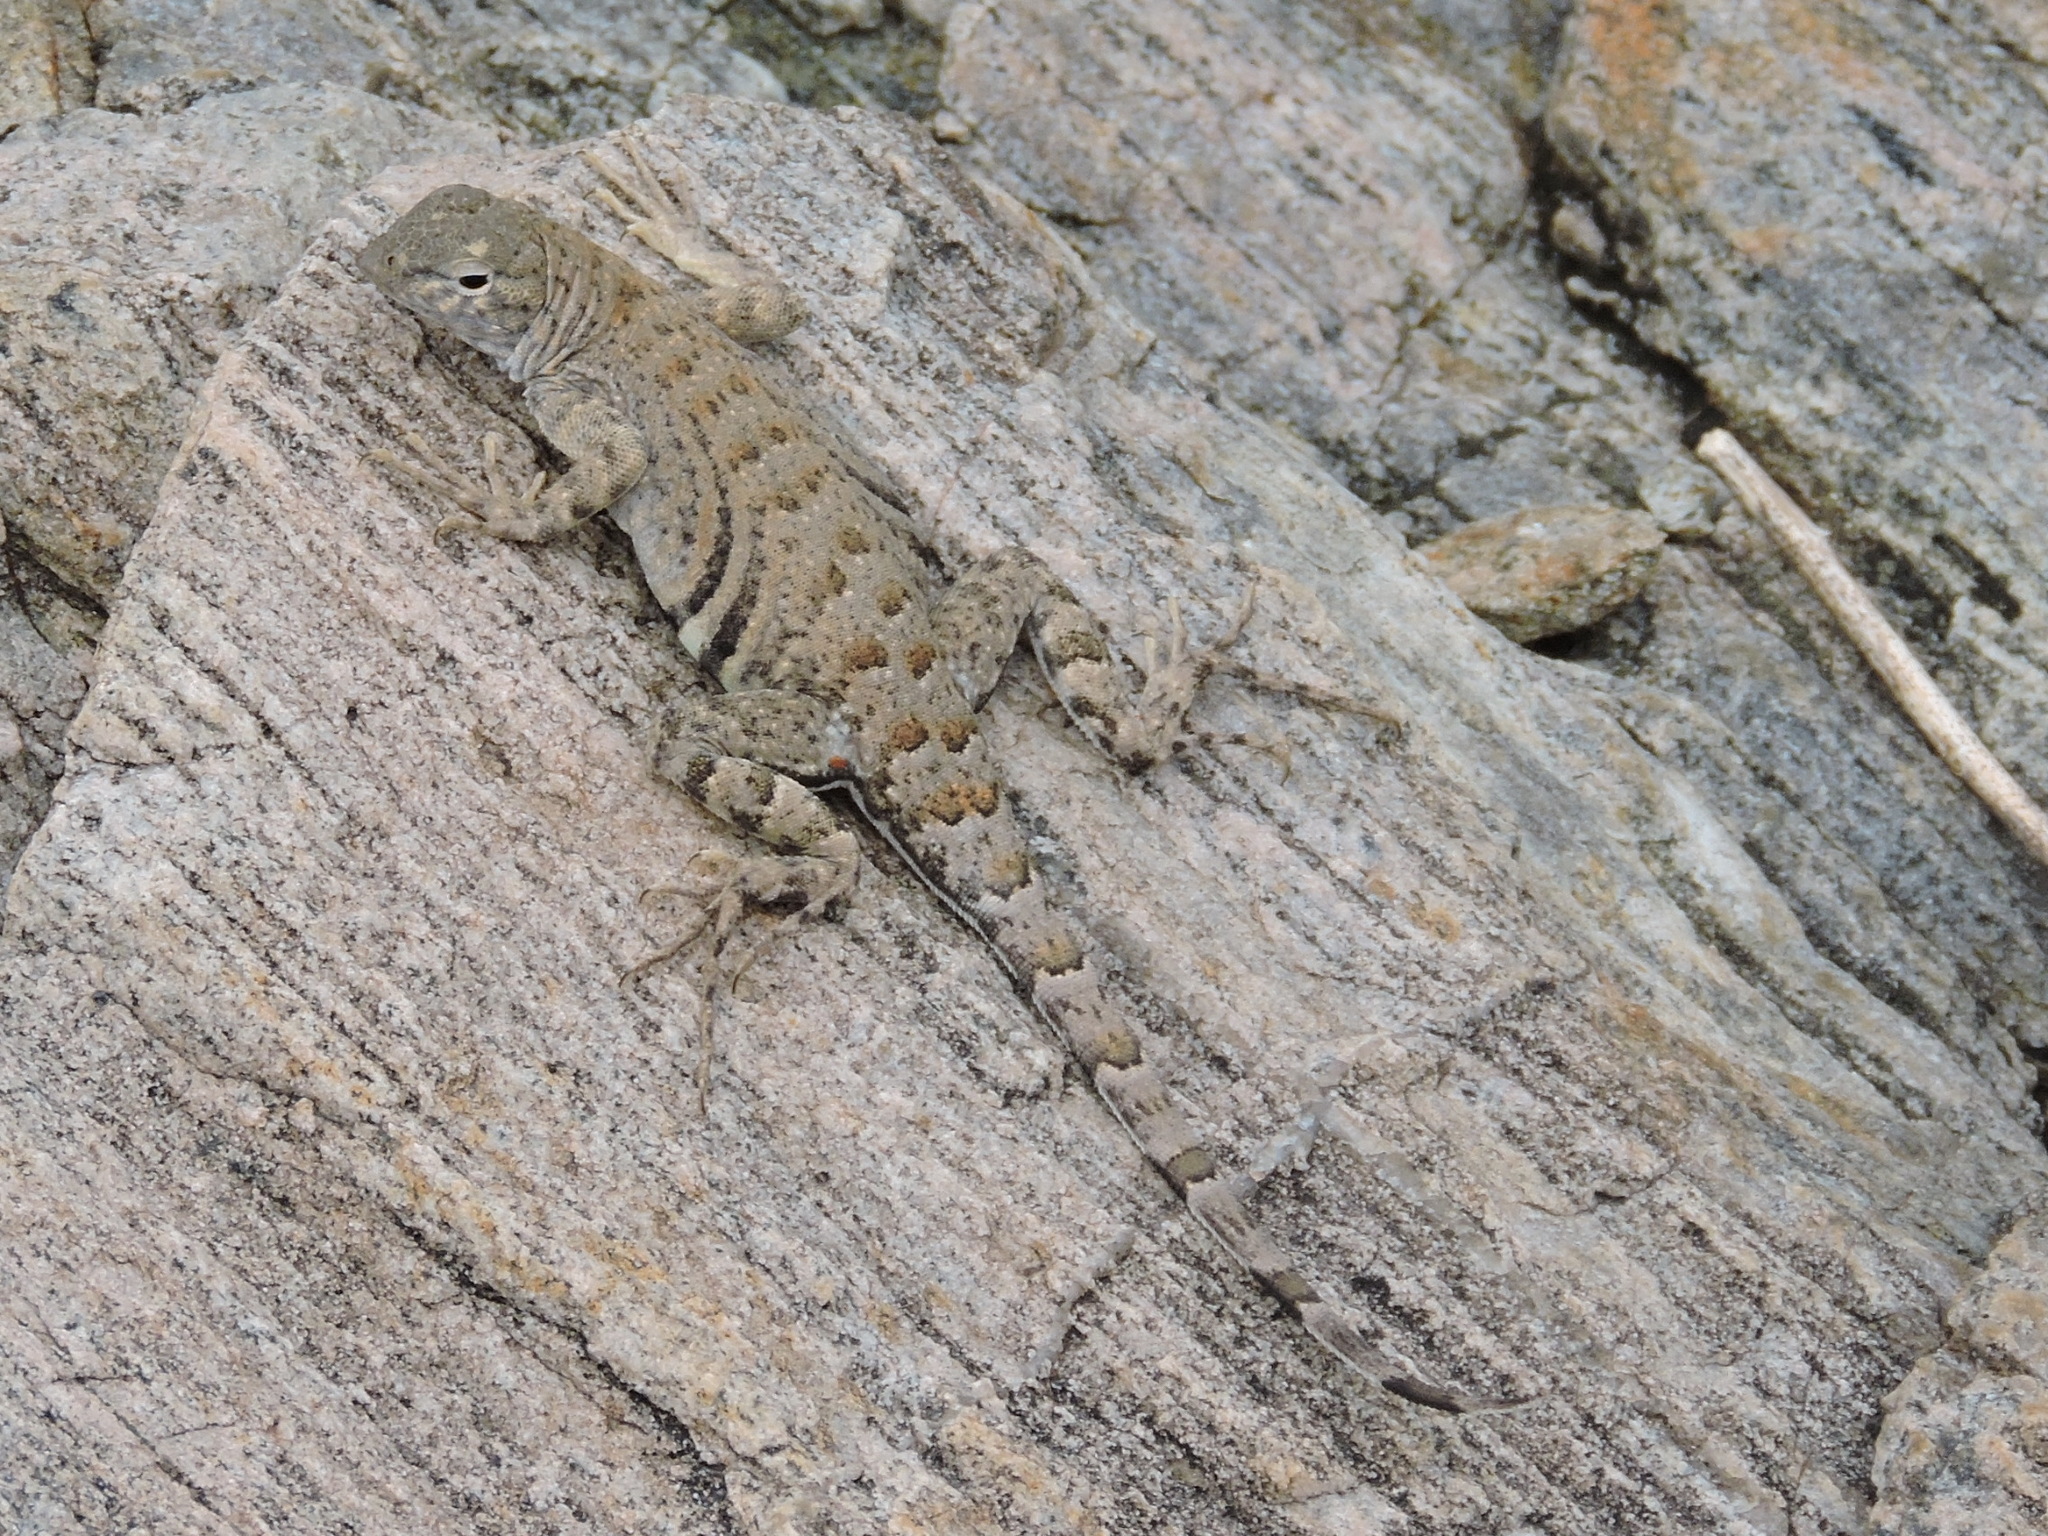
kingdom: Animalia
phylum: Chordata
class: Squamata
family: Phrynosomatidae
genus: Cophosaurus
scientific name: Cophosaurus texanus
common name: Greater earless lizard
